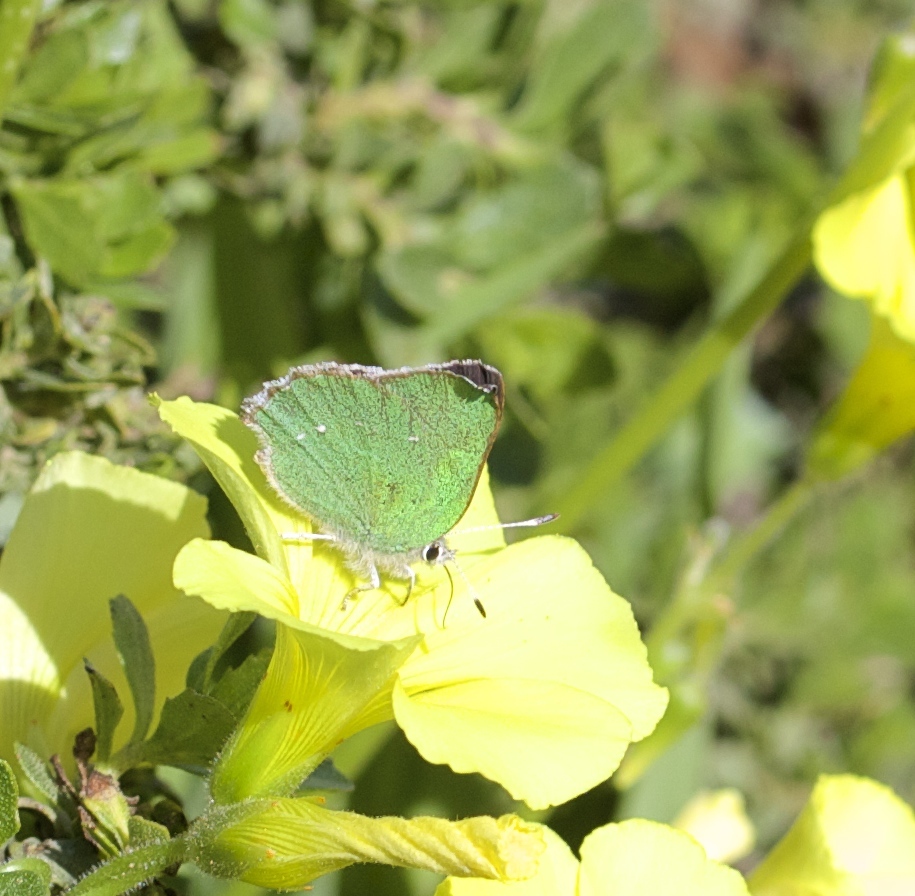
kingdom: Animalia
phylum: Arthropoda
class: Insecta
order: Lepidoptera
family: Lycaenidae
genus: Callophrys
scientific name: Callophrys viridis
